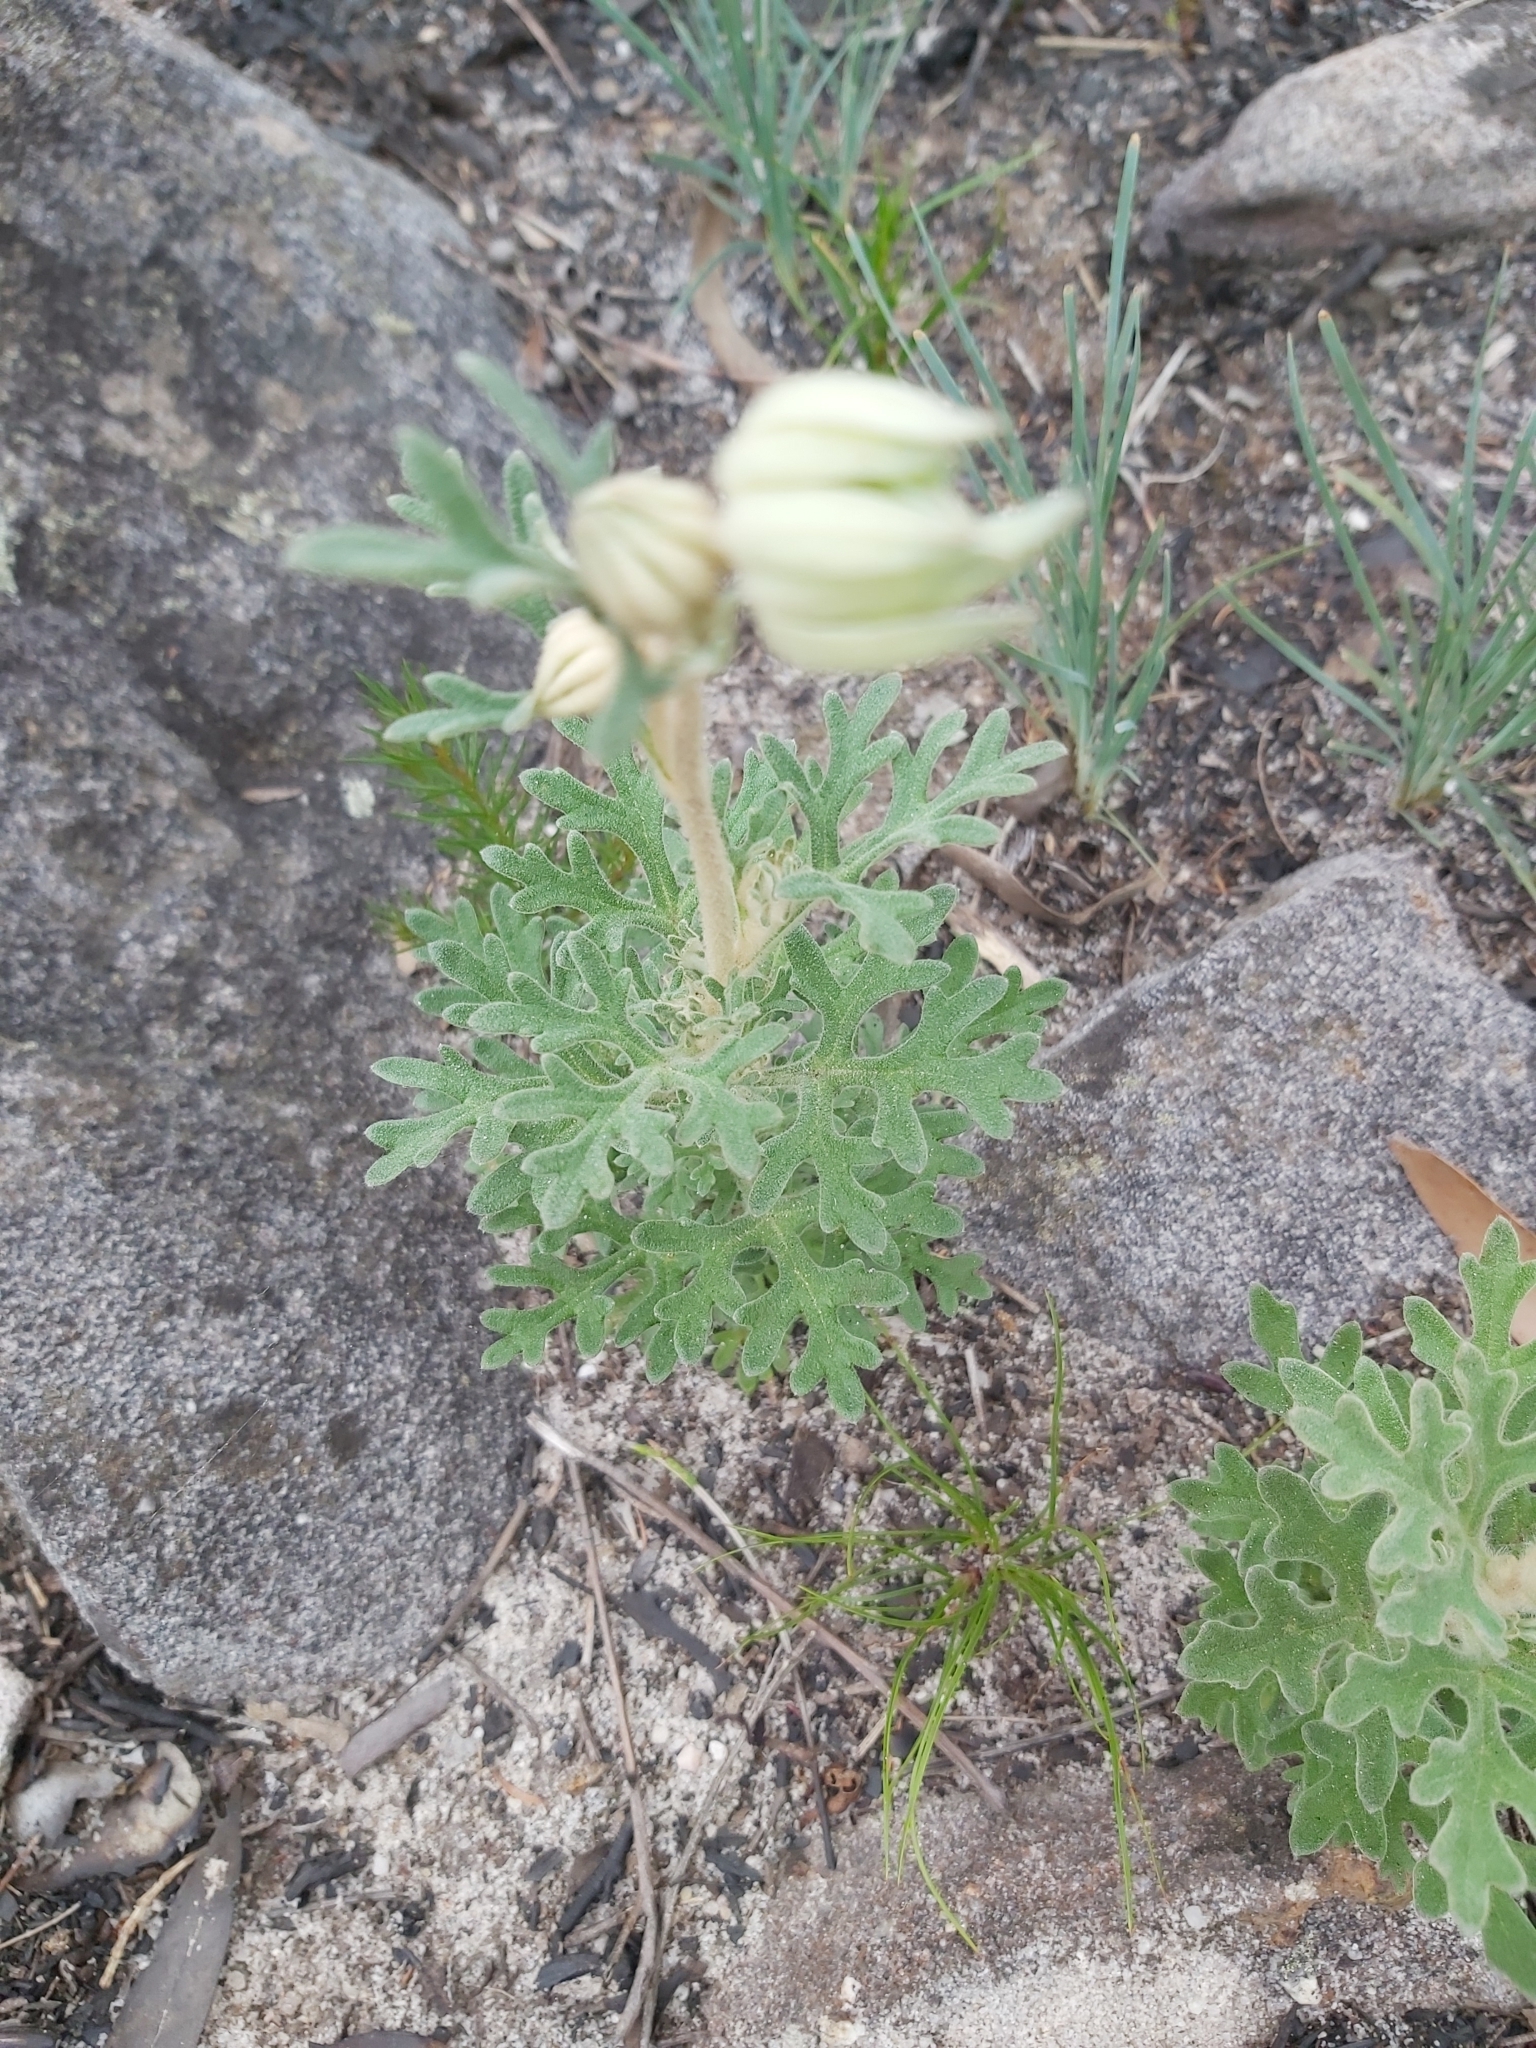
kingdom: Plantae
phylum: Tracheophyta
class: Magnoliopsida
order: Apiales
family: Apiaceae
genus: Actinotus
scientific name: Actinotus helianthi
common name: Flannel-flower
